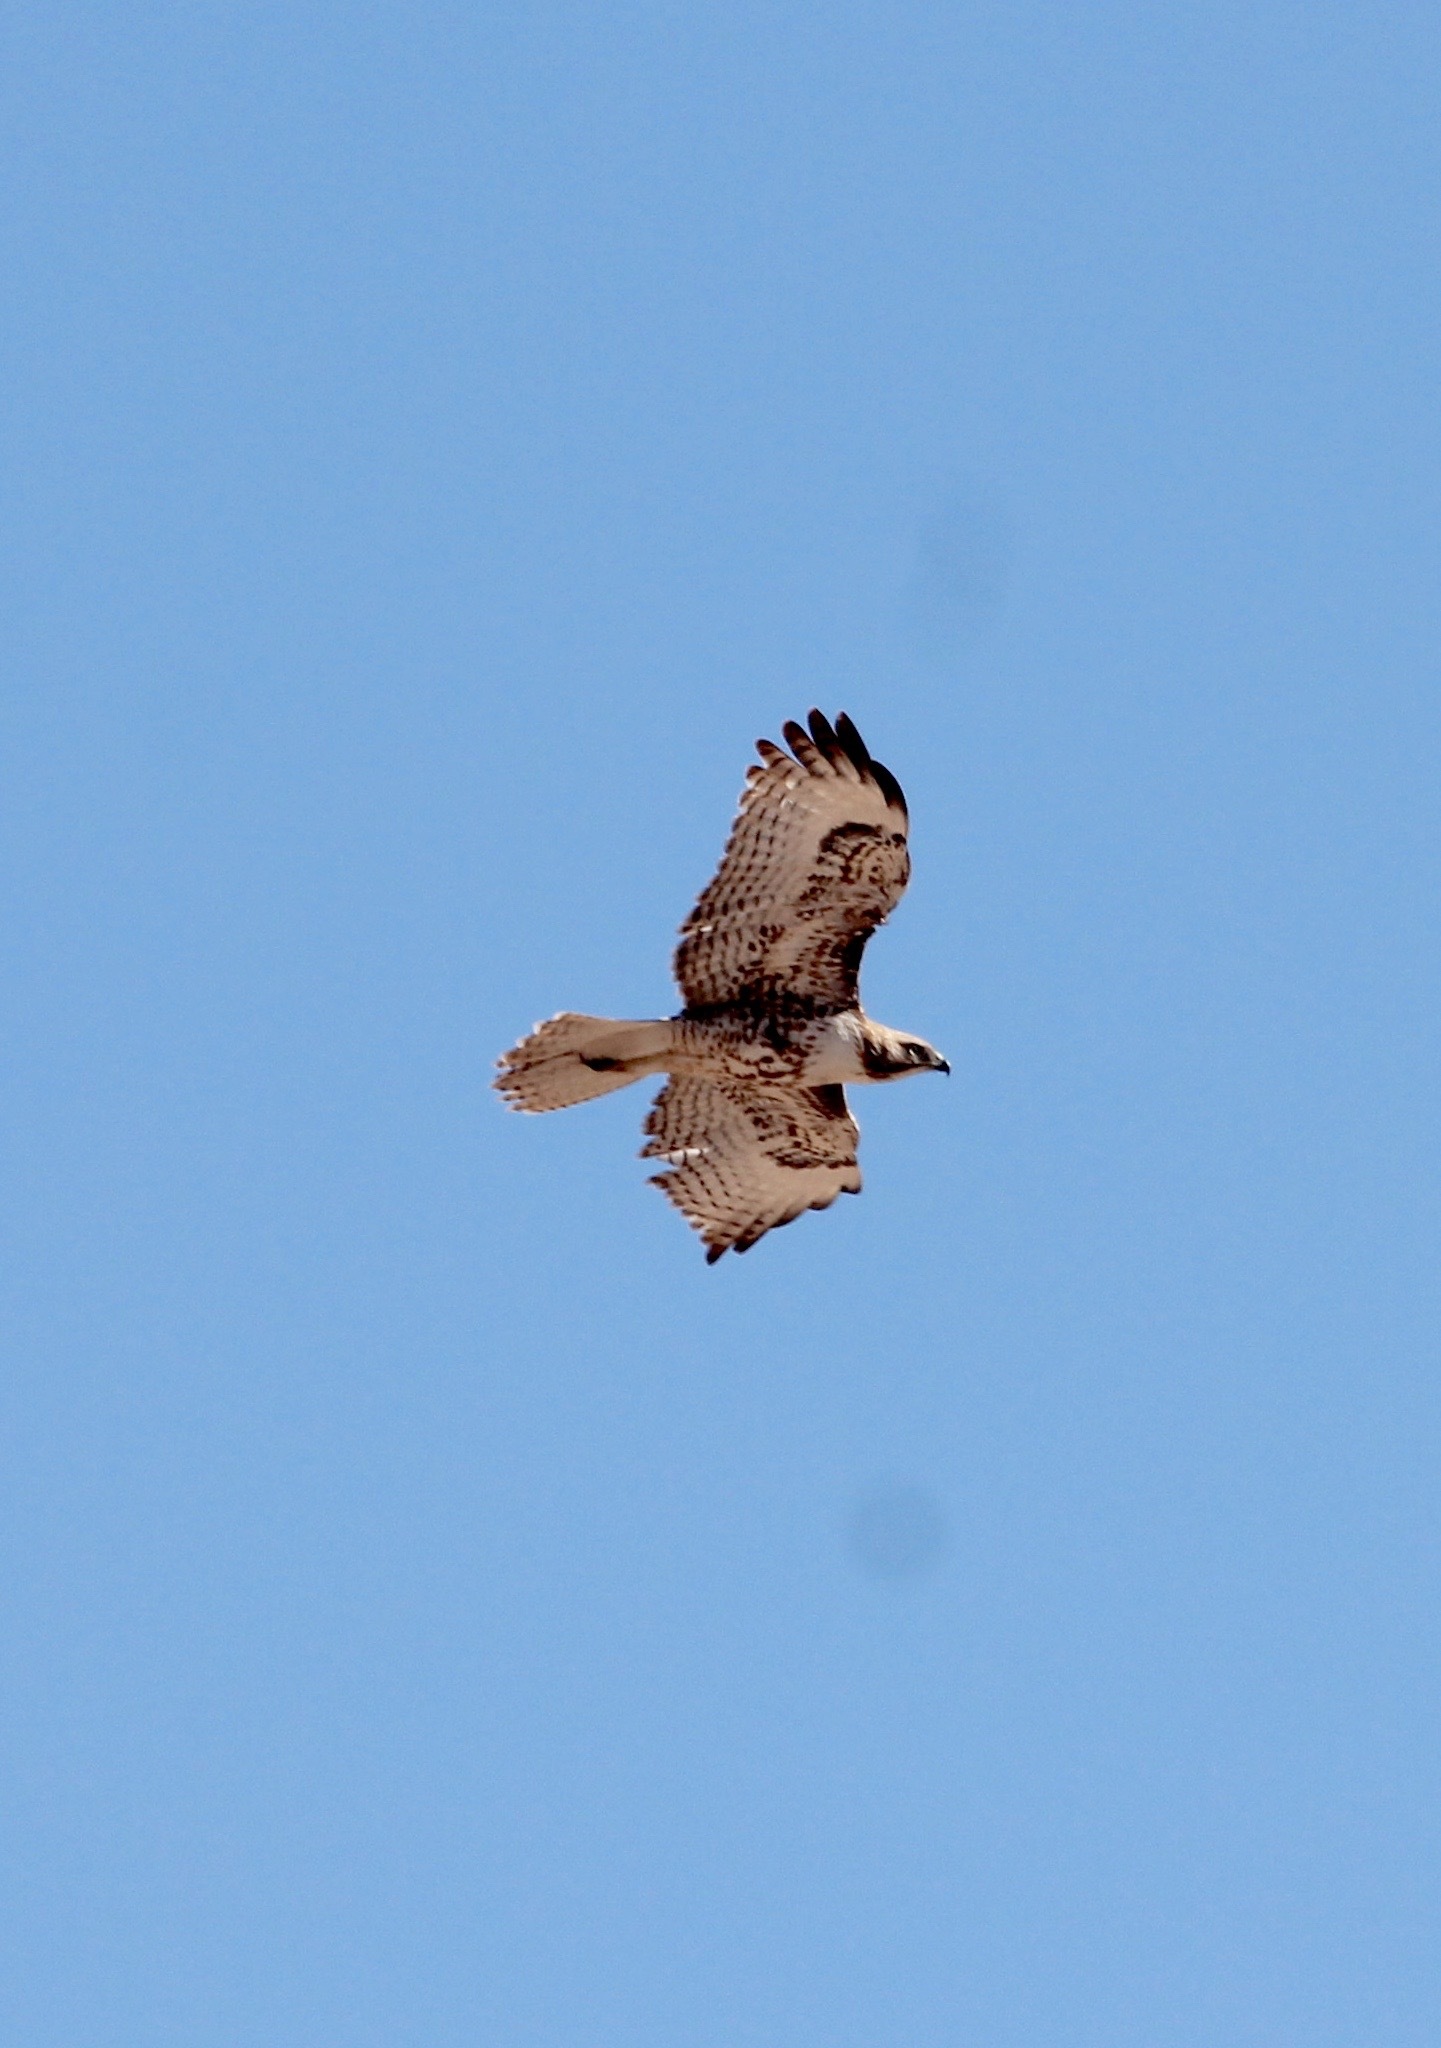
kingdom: Animalia
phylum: Chordata
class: Aves
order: Accipitriformes
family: Accipitridae
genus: Buteo
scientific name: Buteo jamaicensis
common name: Red-tailed hawk
